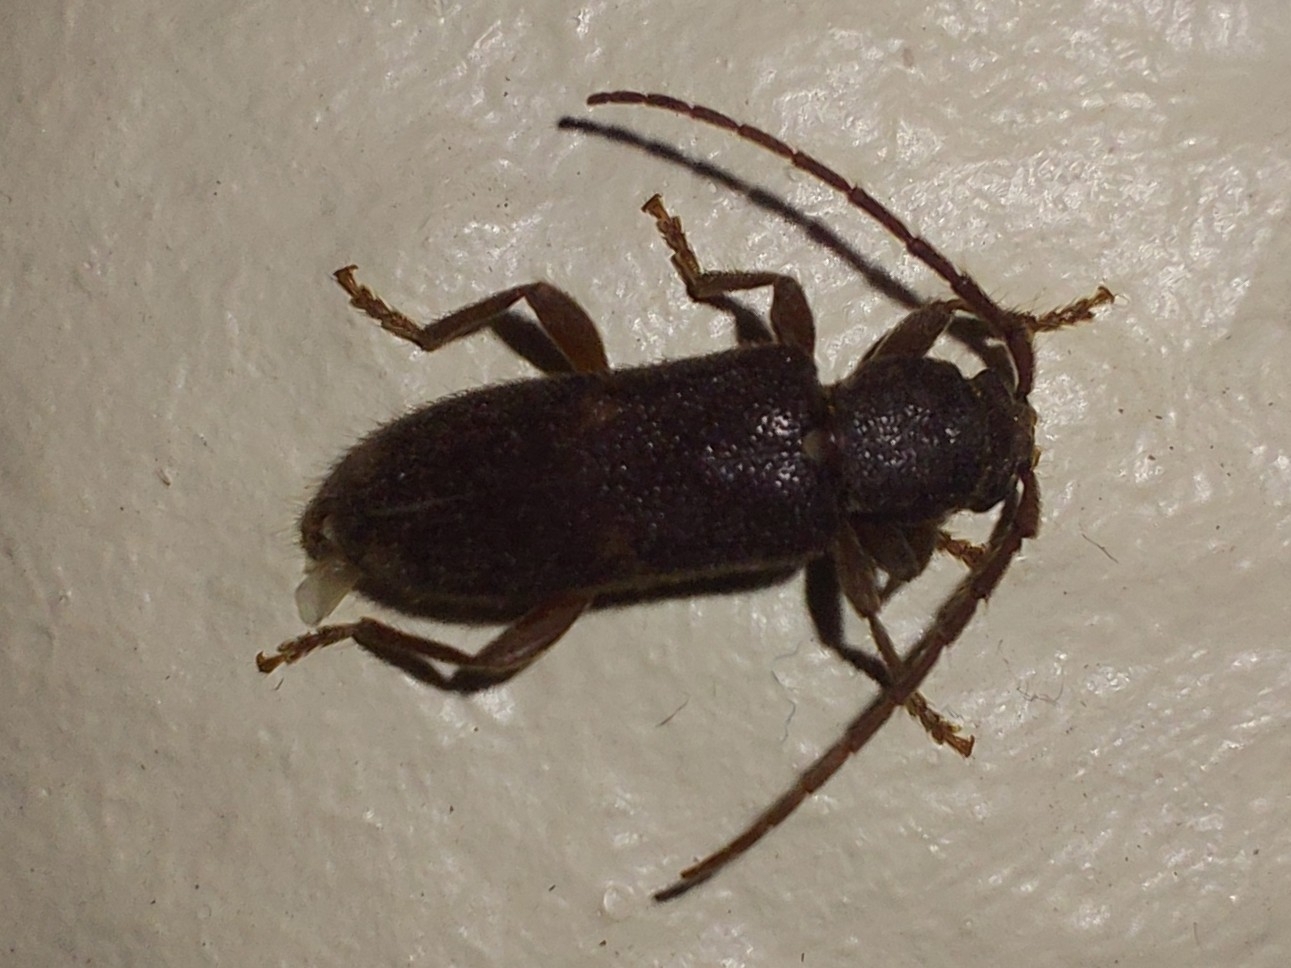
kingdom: Animalia
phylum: Arthropoda
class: Insecta
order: Coleoptera
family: Cerambycidae
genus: Zamium
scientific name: Zamium bimaculatum
